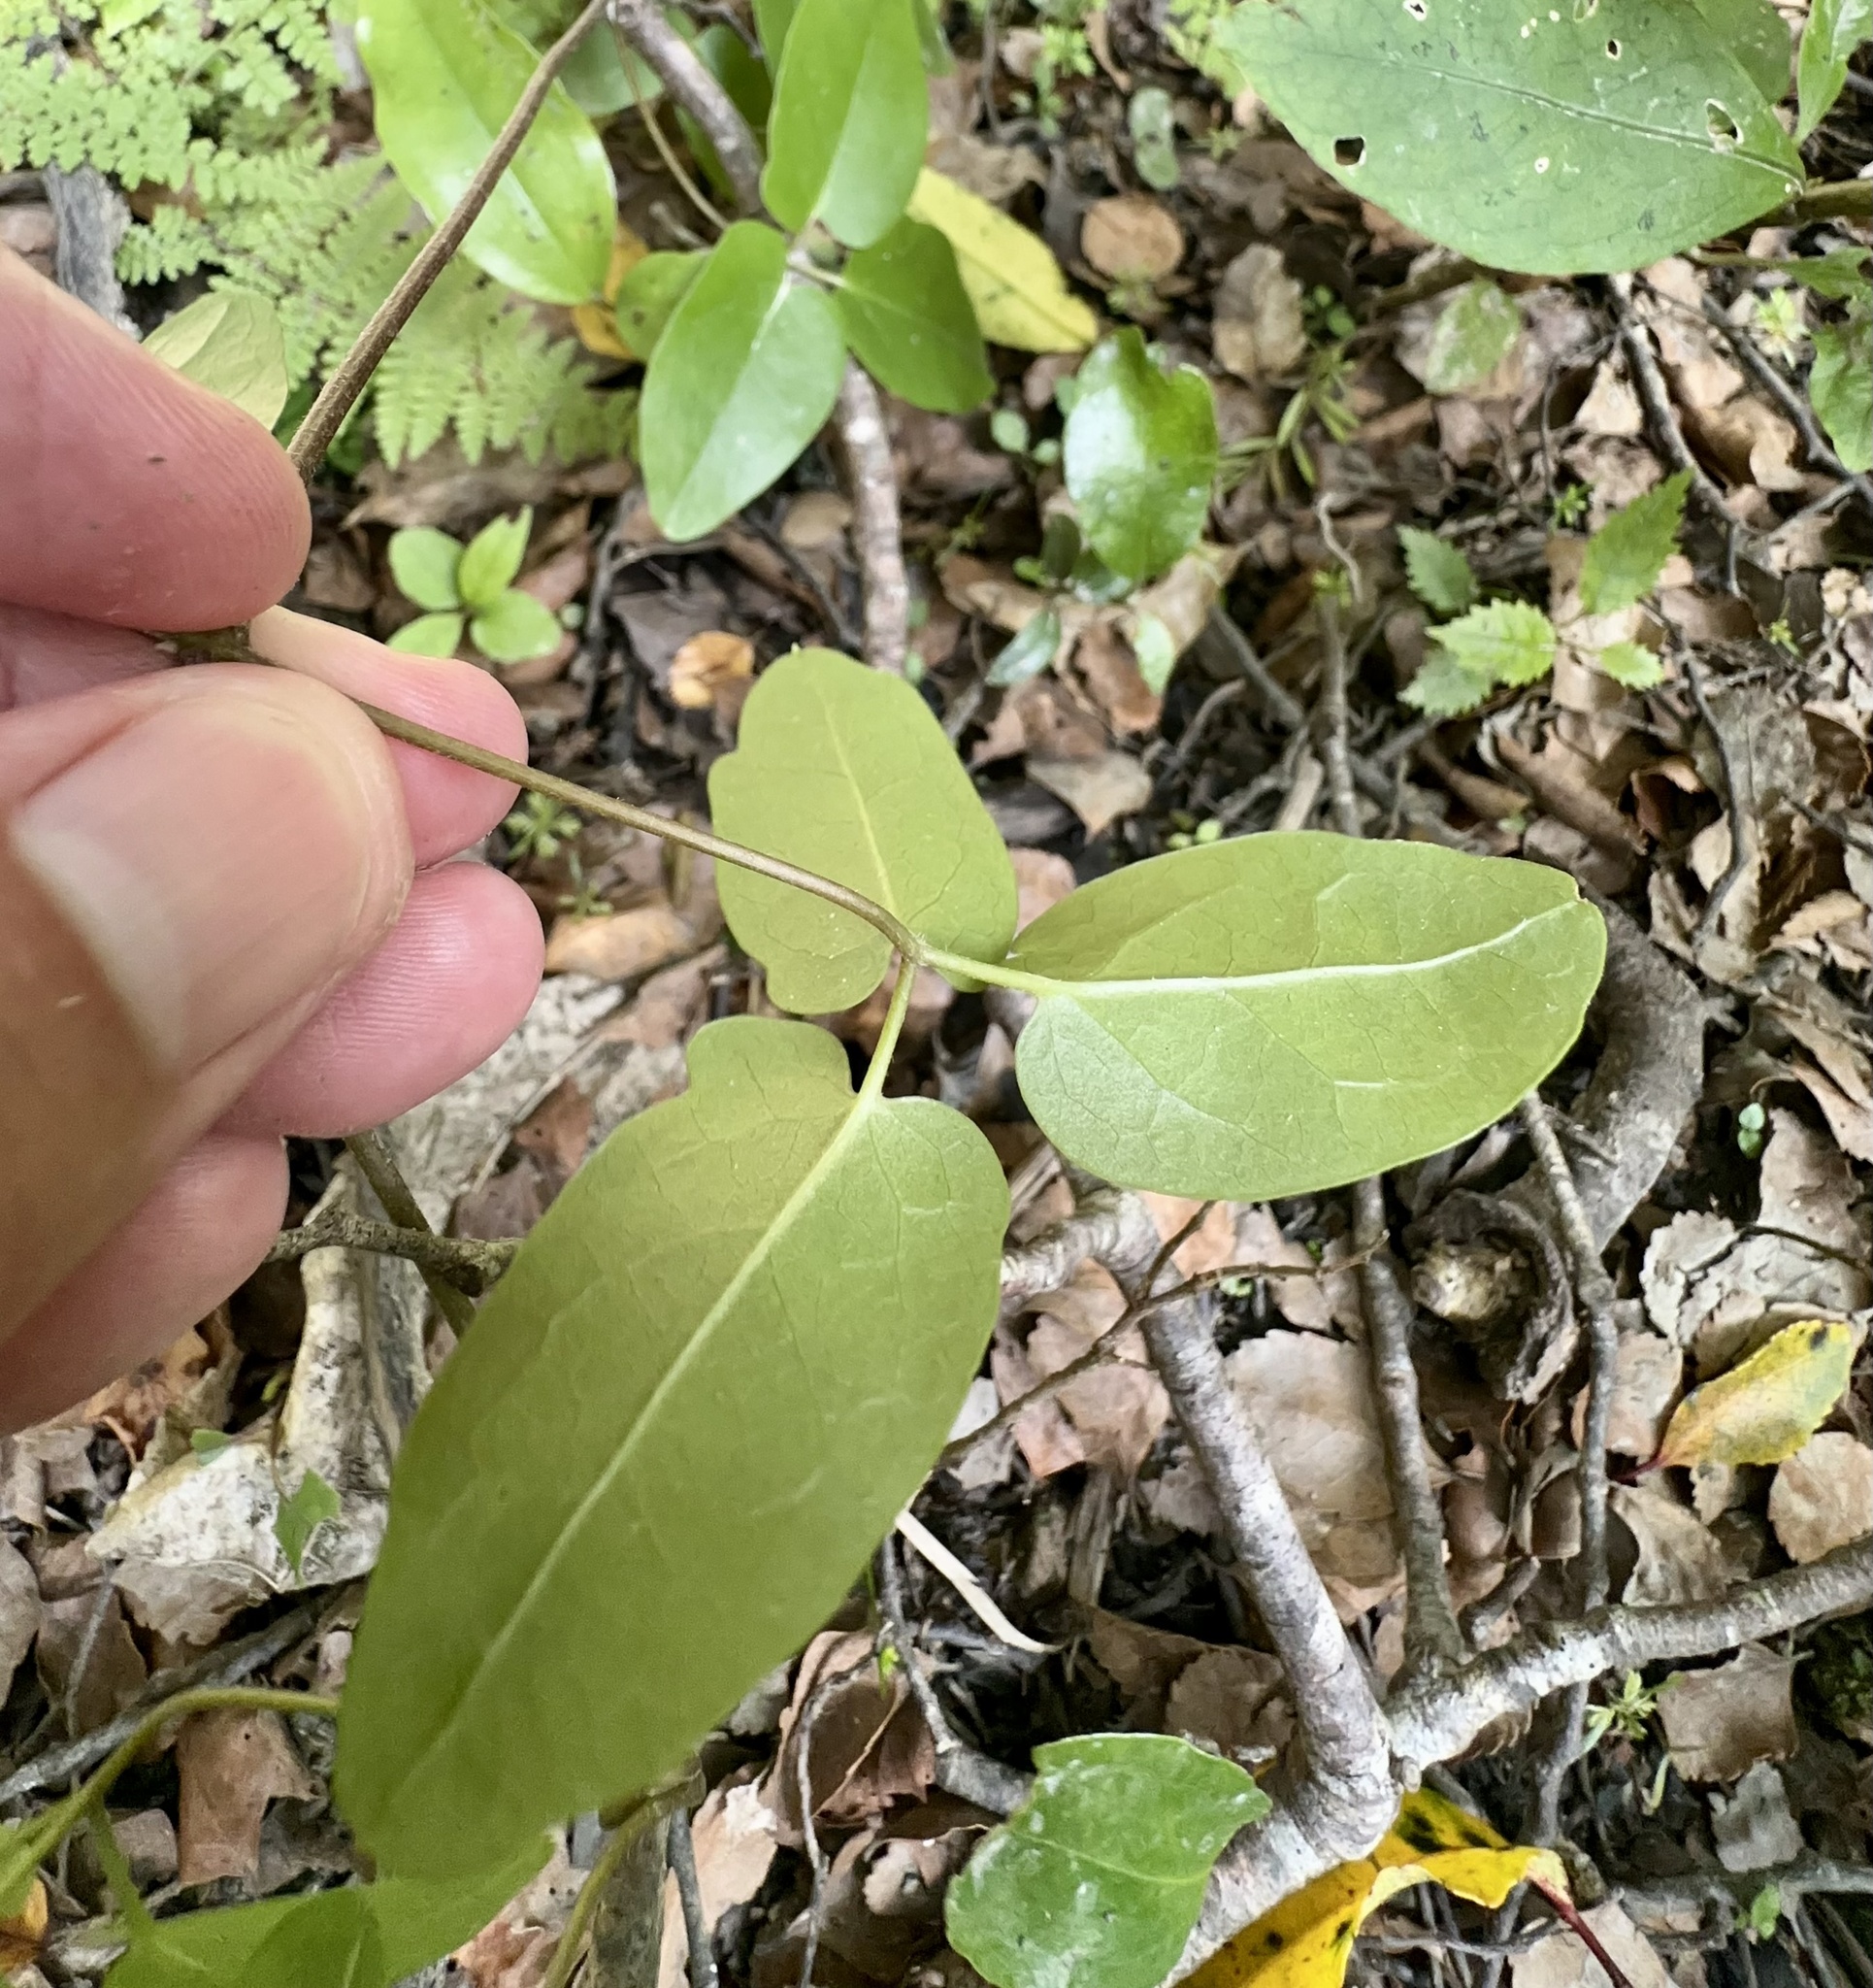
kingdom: Plantae
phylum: Tracheophyta
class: Magnoliopsida
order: Ranunculales
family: Ranunculaceae
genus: Clematis
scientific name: Clematis paniculata
